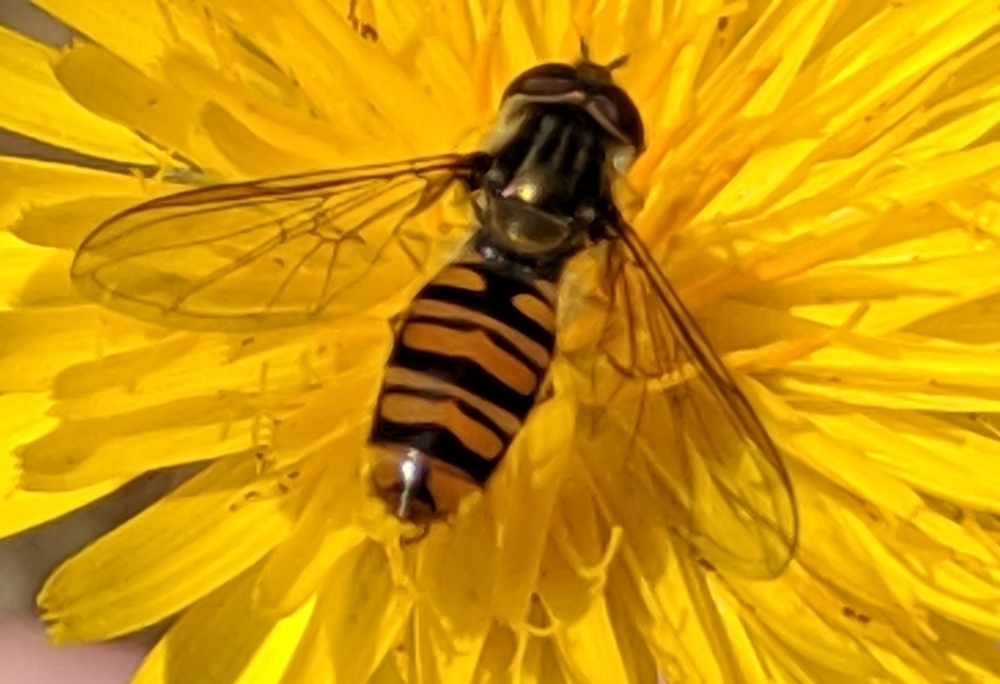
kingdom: Animalia
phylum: Arthropoda
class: Insecta
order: Diptera
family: Syrphidae
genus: Episyrphus
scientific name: Episyrphus balteatus
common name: Marmalade hoverfly
